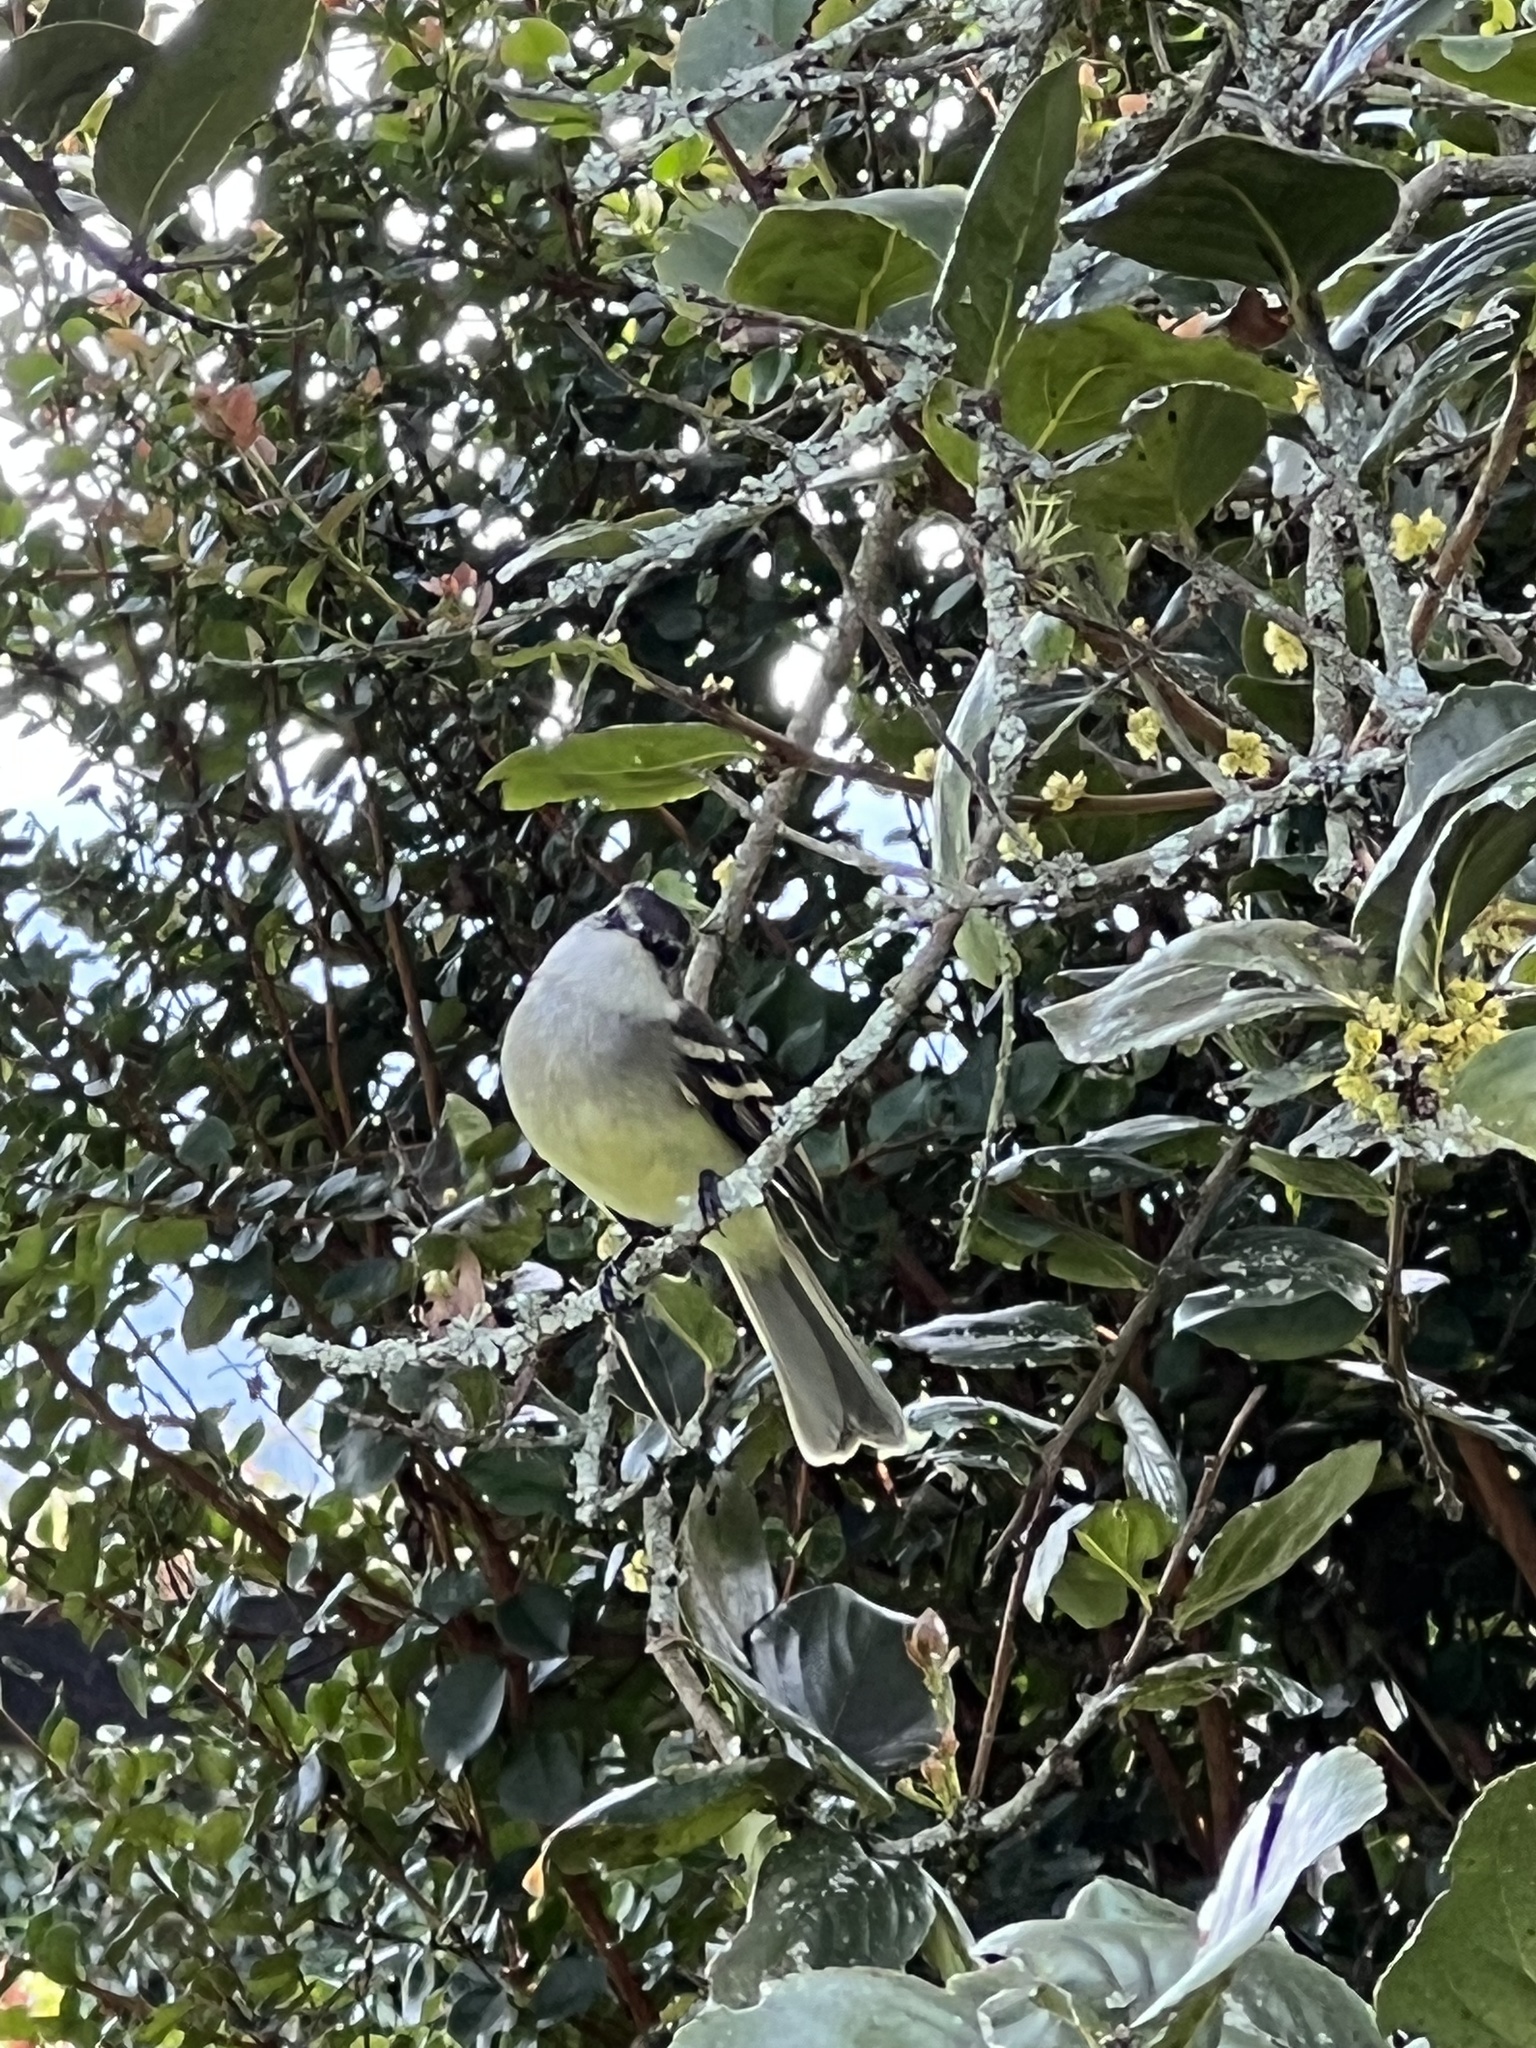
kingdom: Animalia
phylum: Chordata
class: Aves
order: Passeriformes
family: Tyrannidae
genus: Mecocerculus
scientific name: Mecocerculus leucophrys
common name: White-throated tyrannulet
